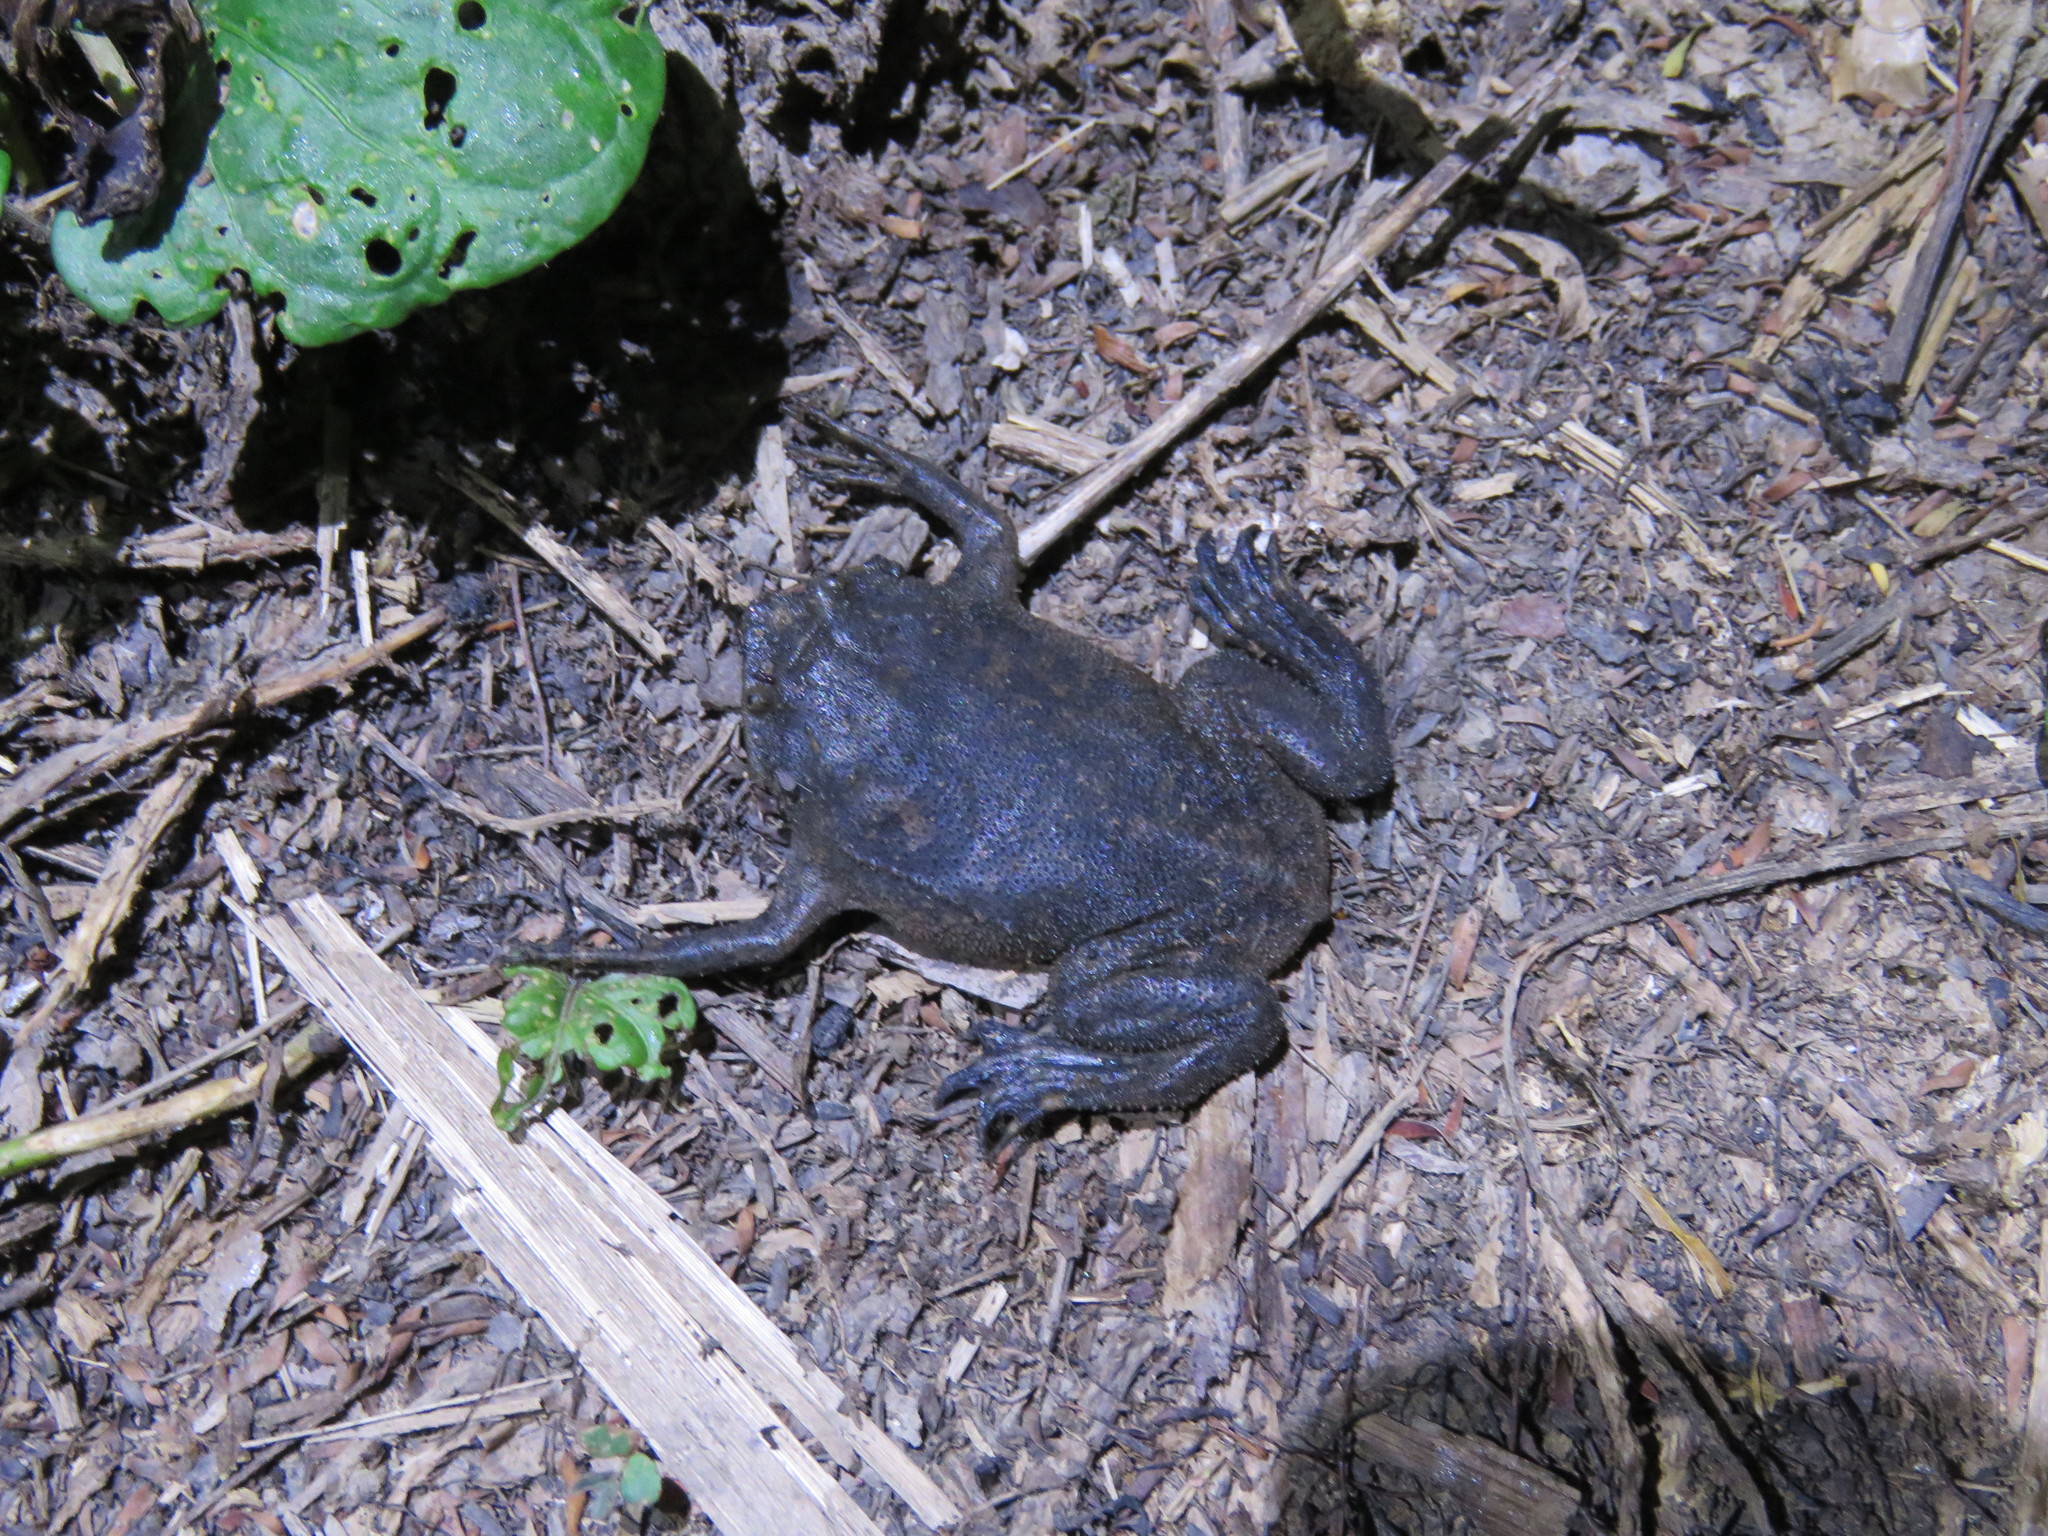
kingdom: Animalia
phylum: Chordata
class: Amphibia
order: Anura
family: Pipidae
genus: Pipa
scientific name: Pipa pipa
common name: Surinam toad
